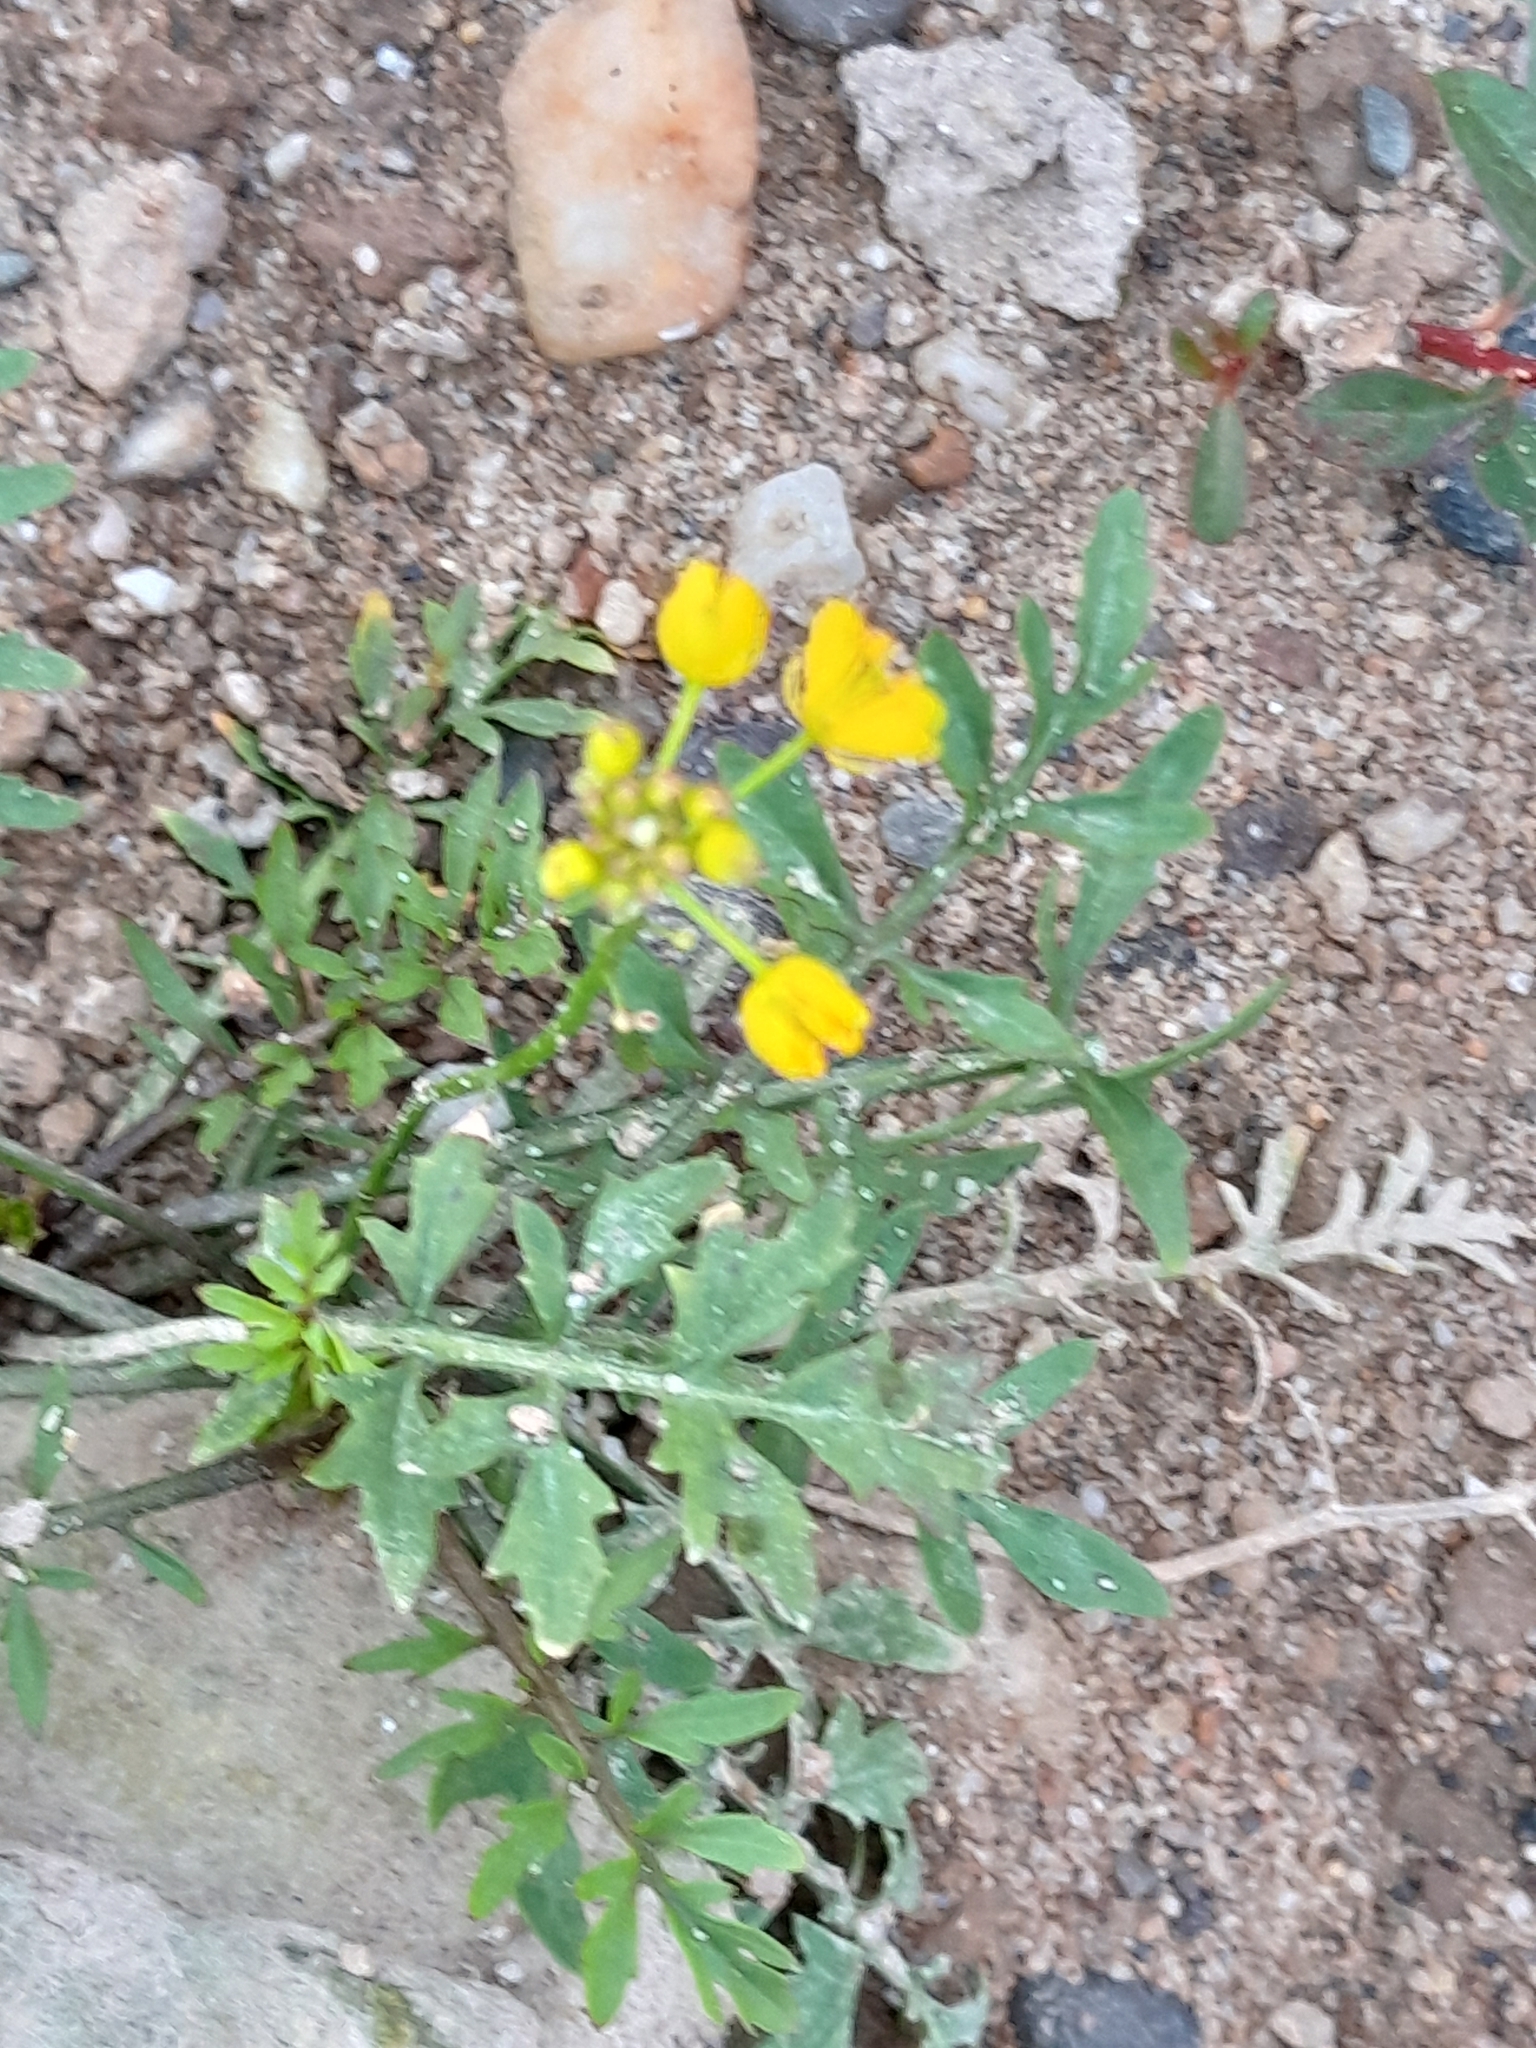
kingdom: Plantae
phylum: Tracheophyta
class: Magnoliopsida
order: Brassicales
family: Brassicaceae
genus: Rorippa
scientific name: Rorippa sylvestris
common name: Creeping yellowcress
